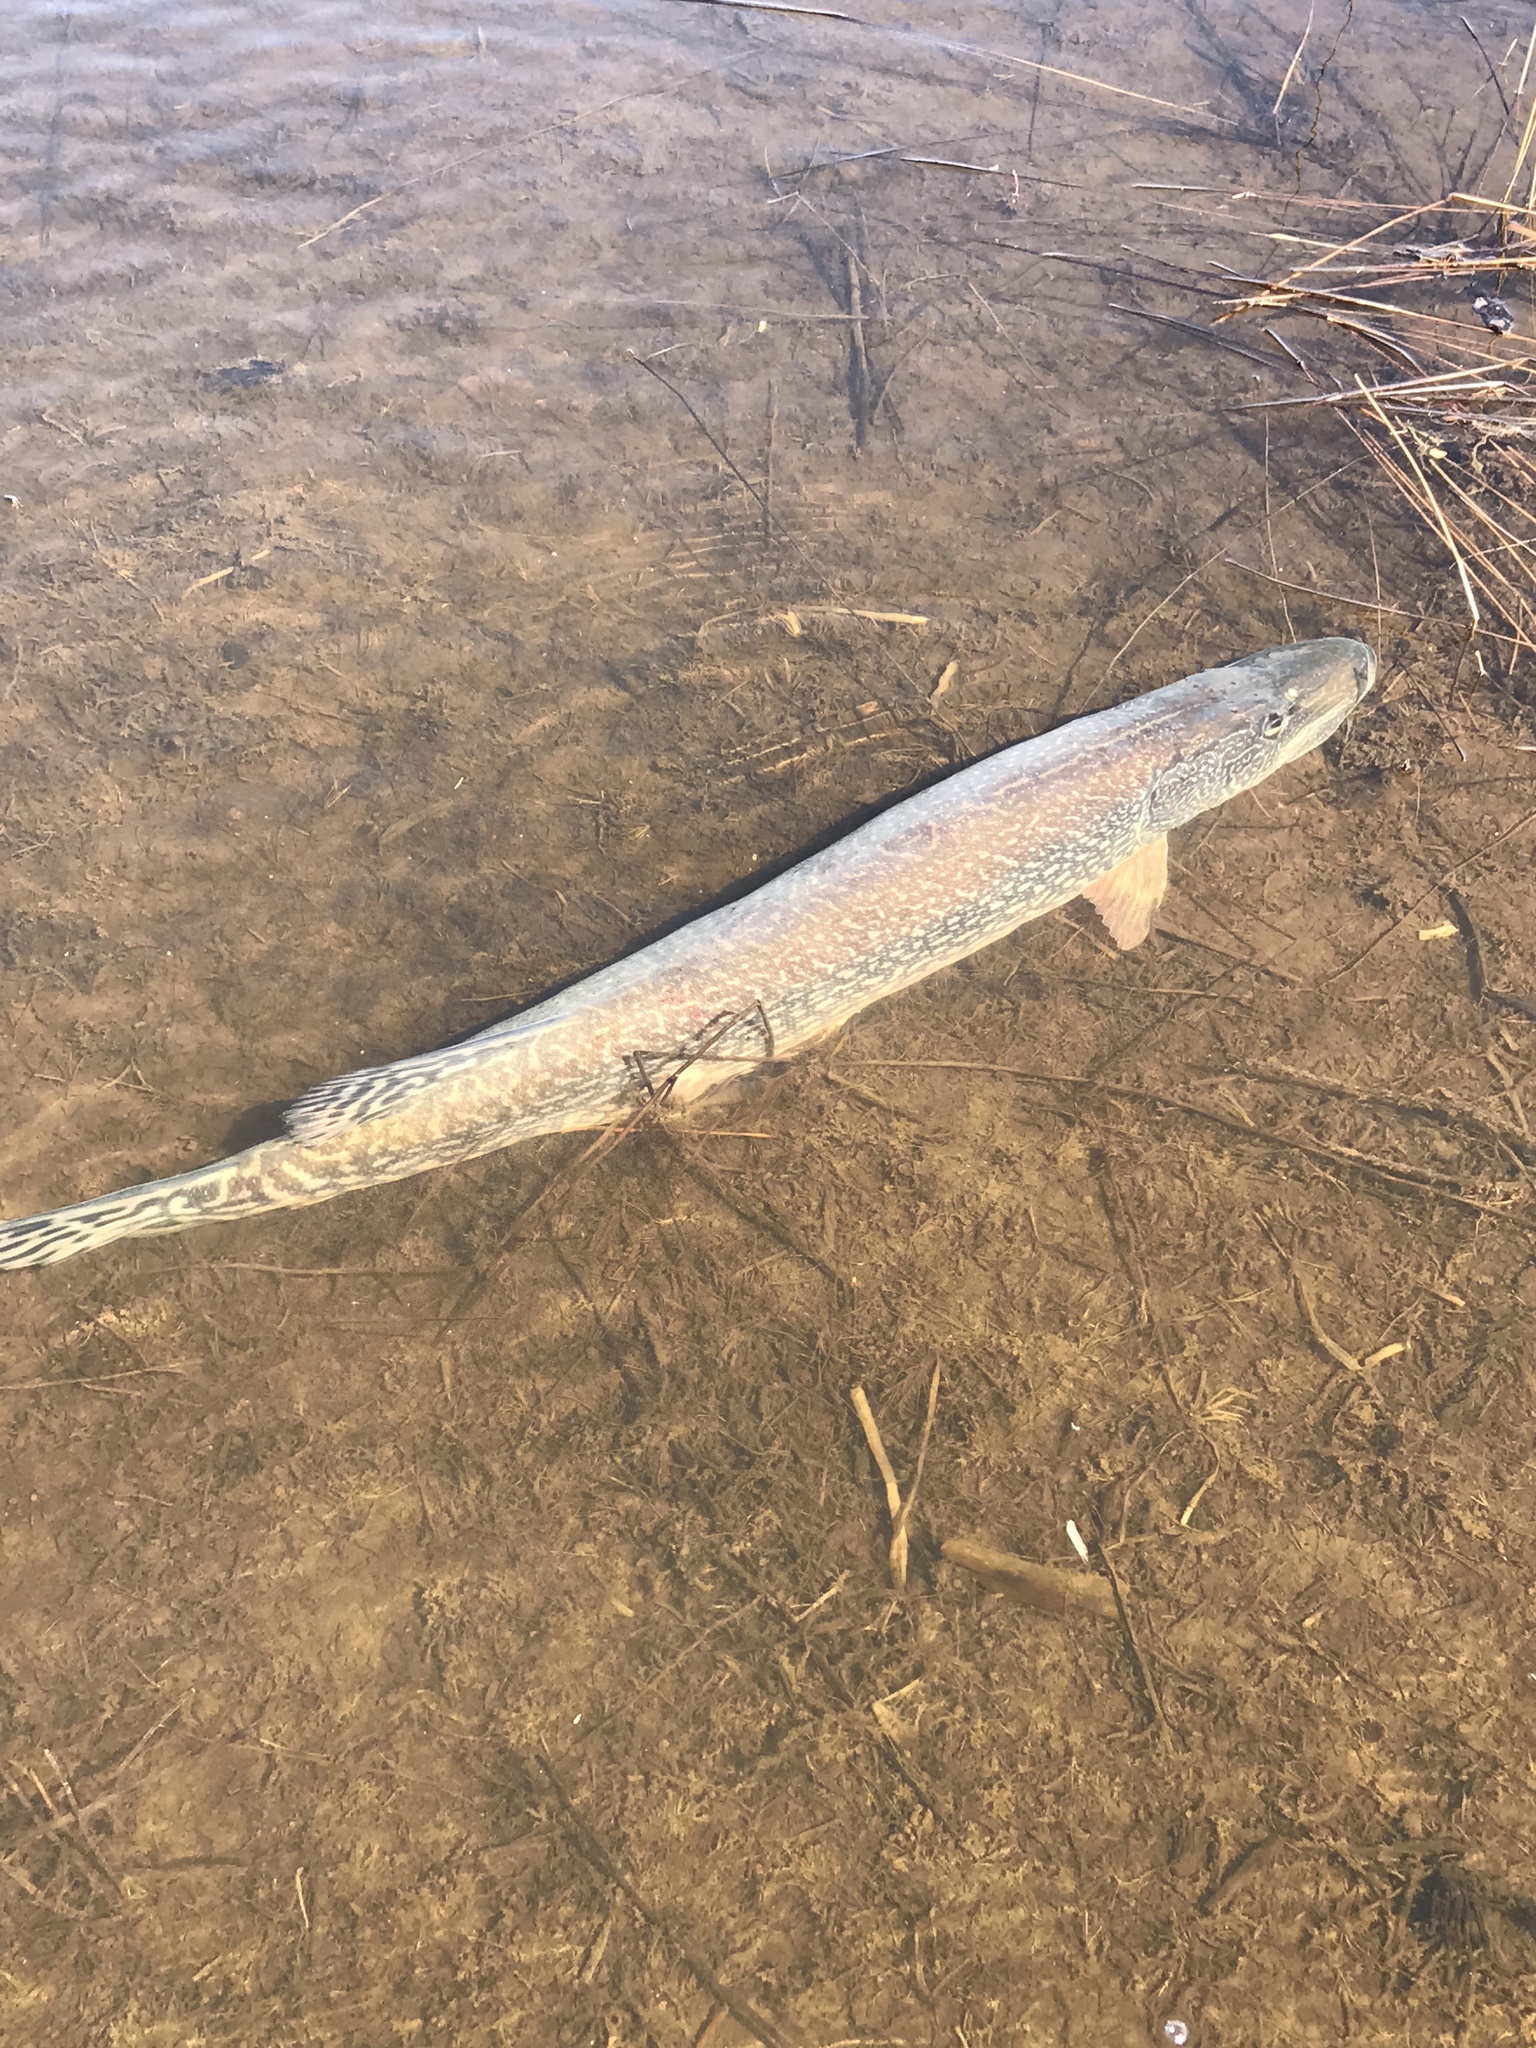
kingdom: Animalia
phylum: Chordata
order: Esociformes
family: Esocidae
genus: Esox
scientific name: Esox lucius
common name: Northern pike
